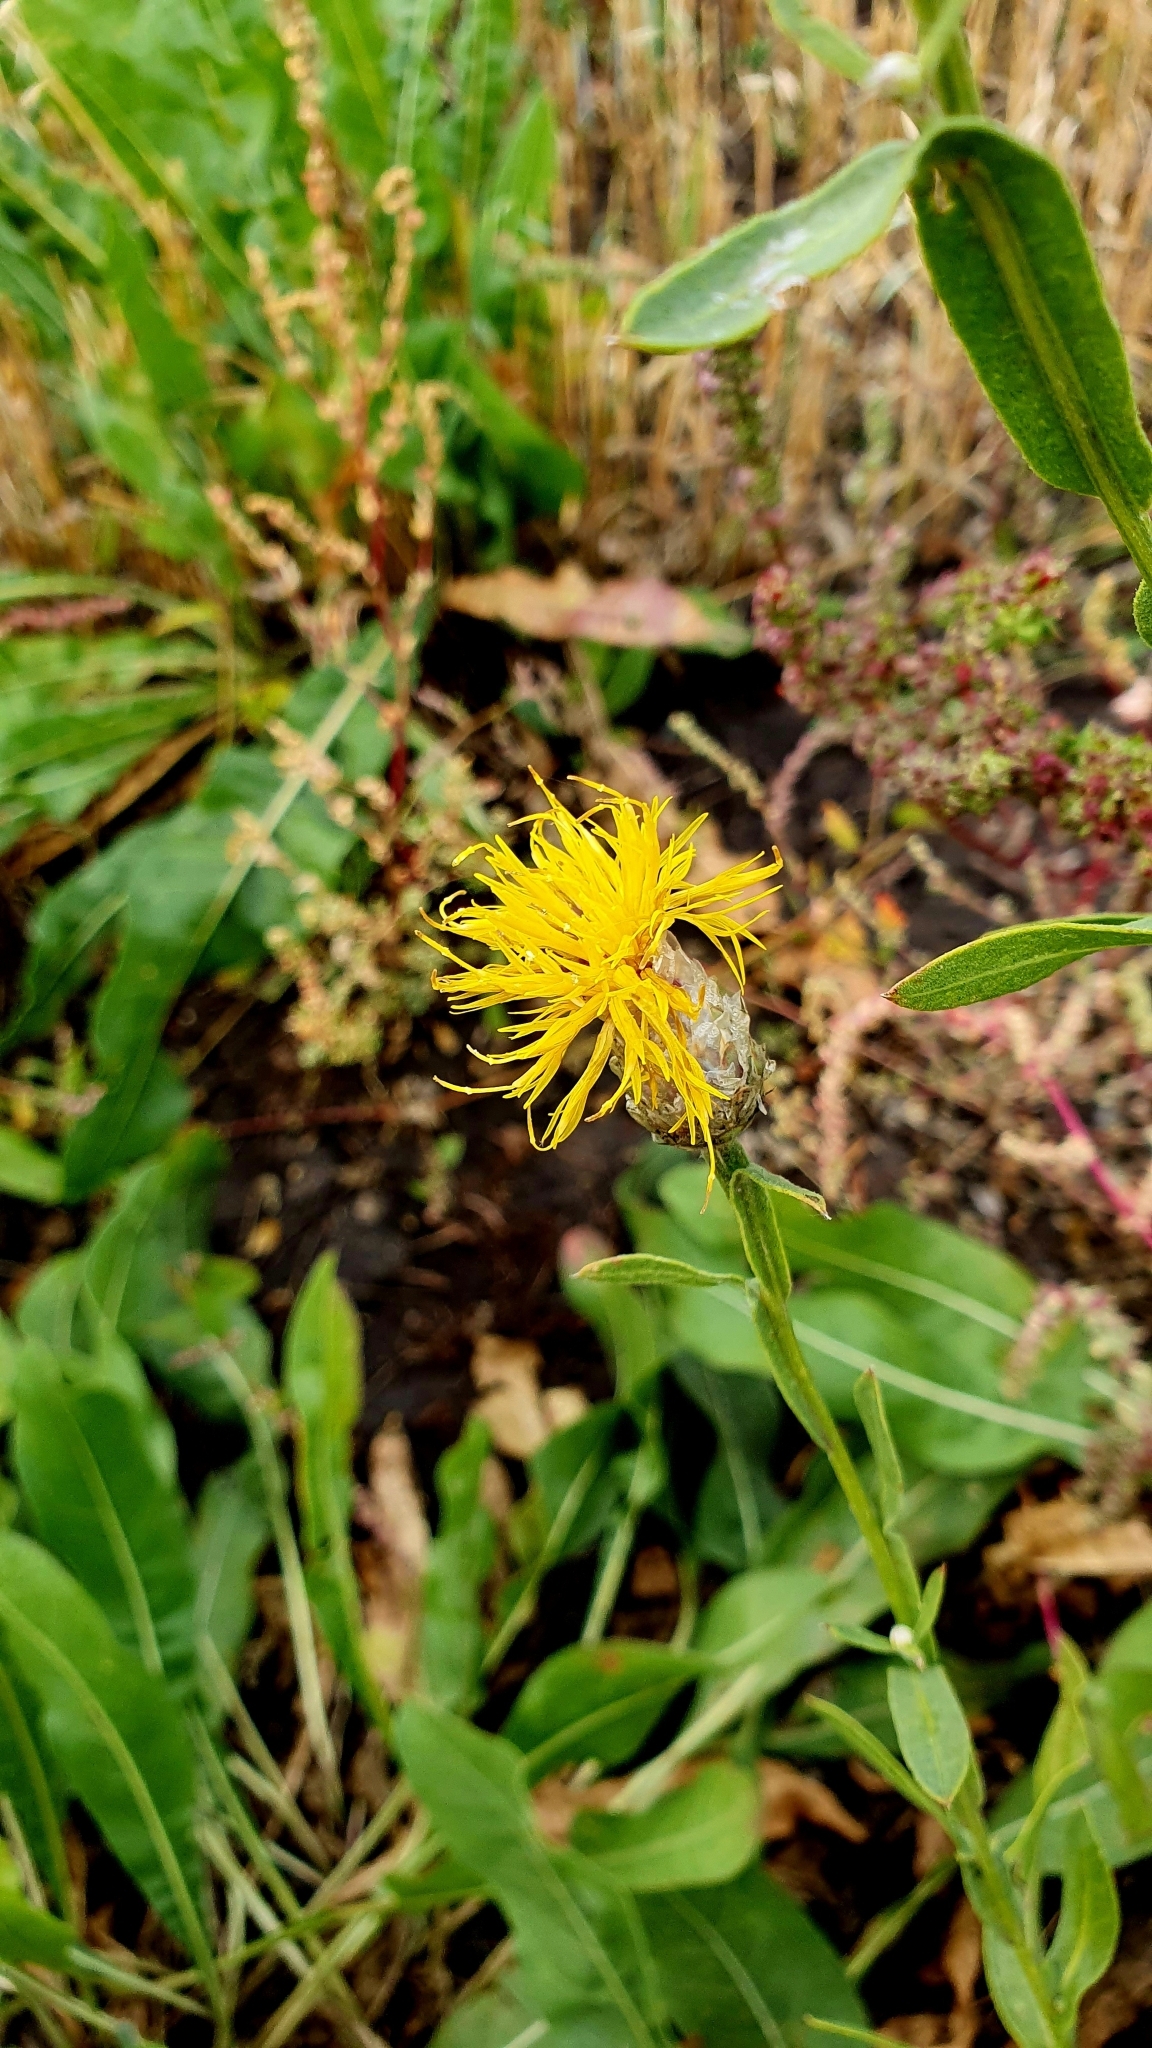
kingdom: Plantae
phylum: Tracheophyta
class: Magnoliopsida
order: Asterales
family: Asteraceae
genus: Centaurea
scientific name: Centaurea glastifolia
